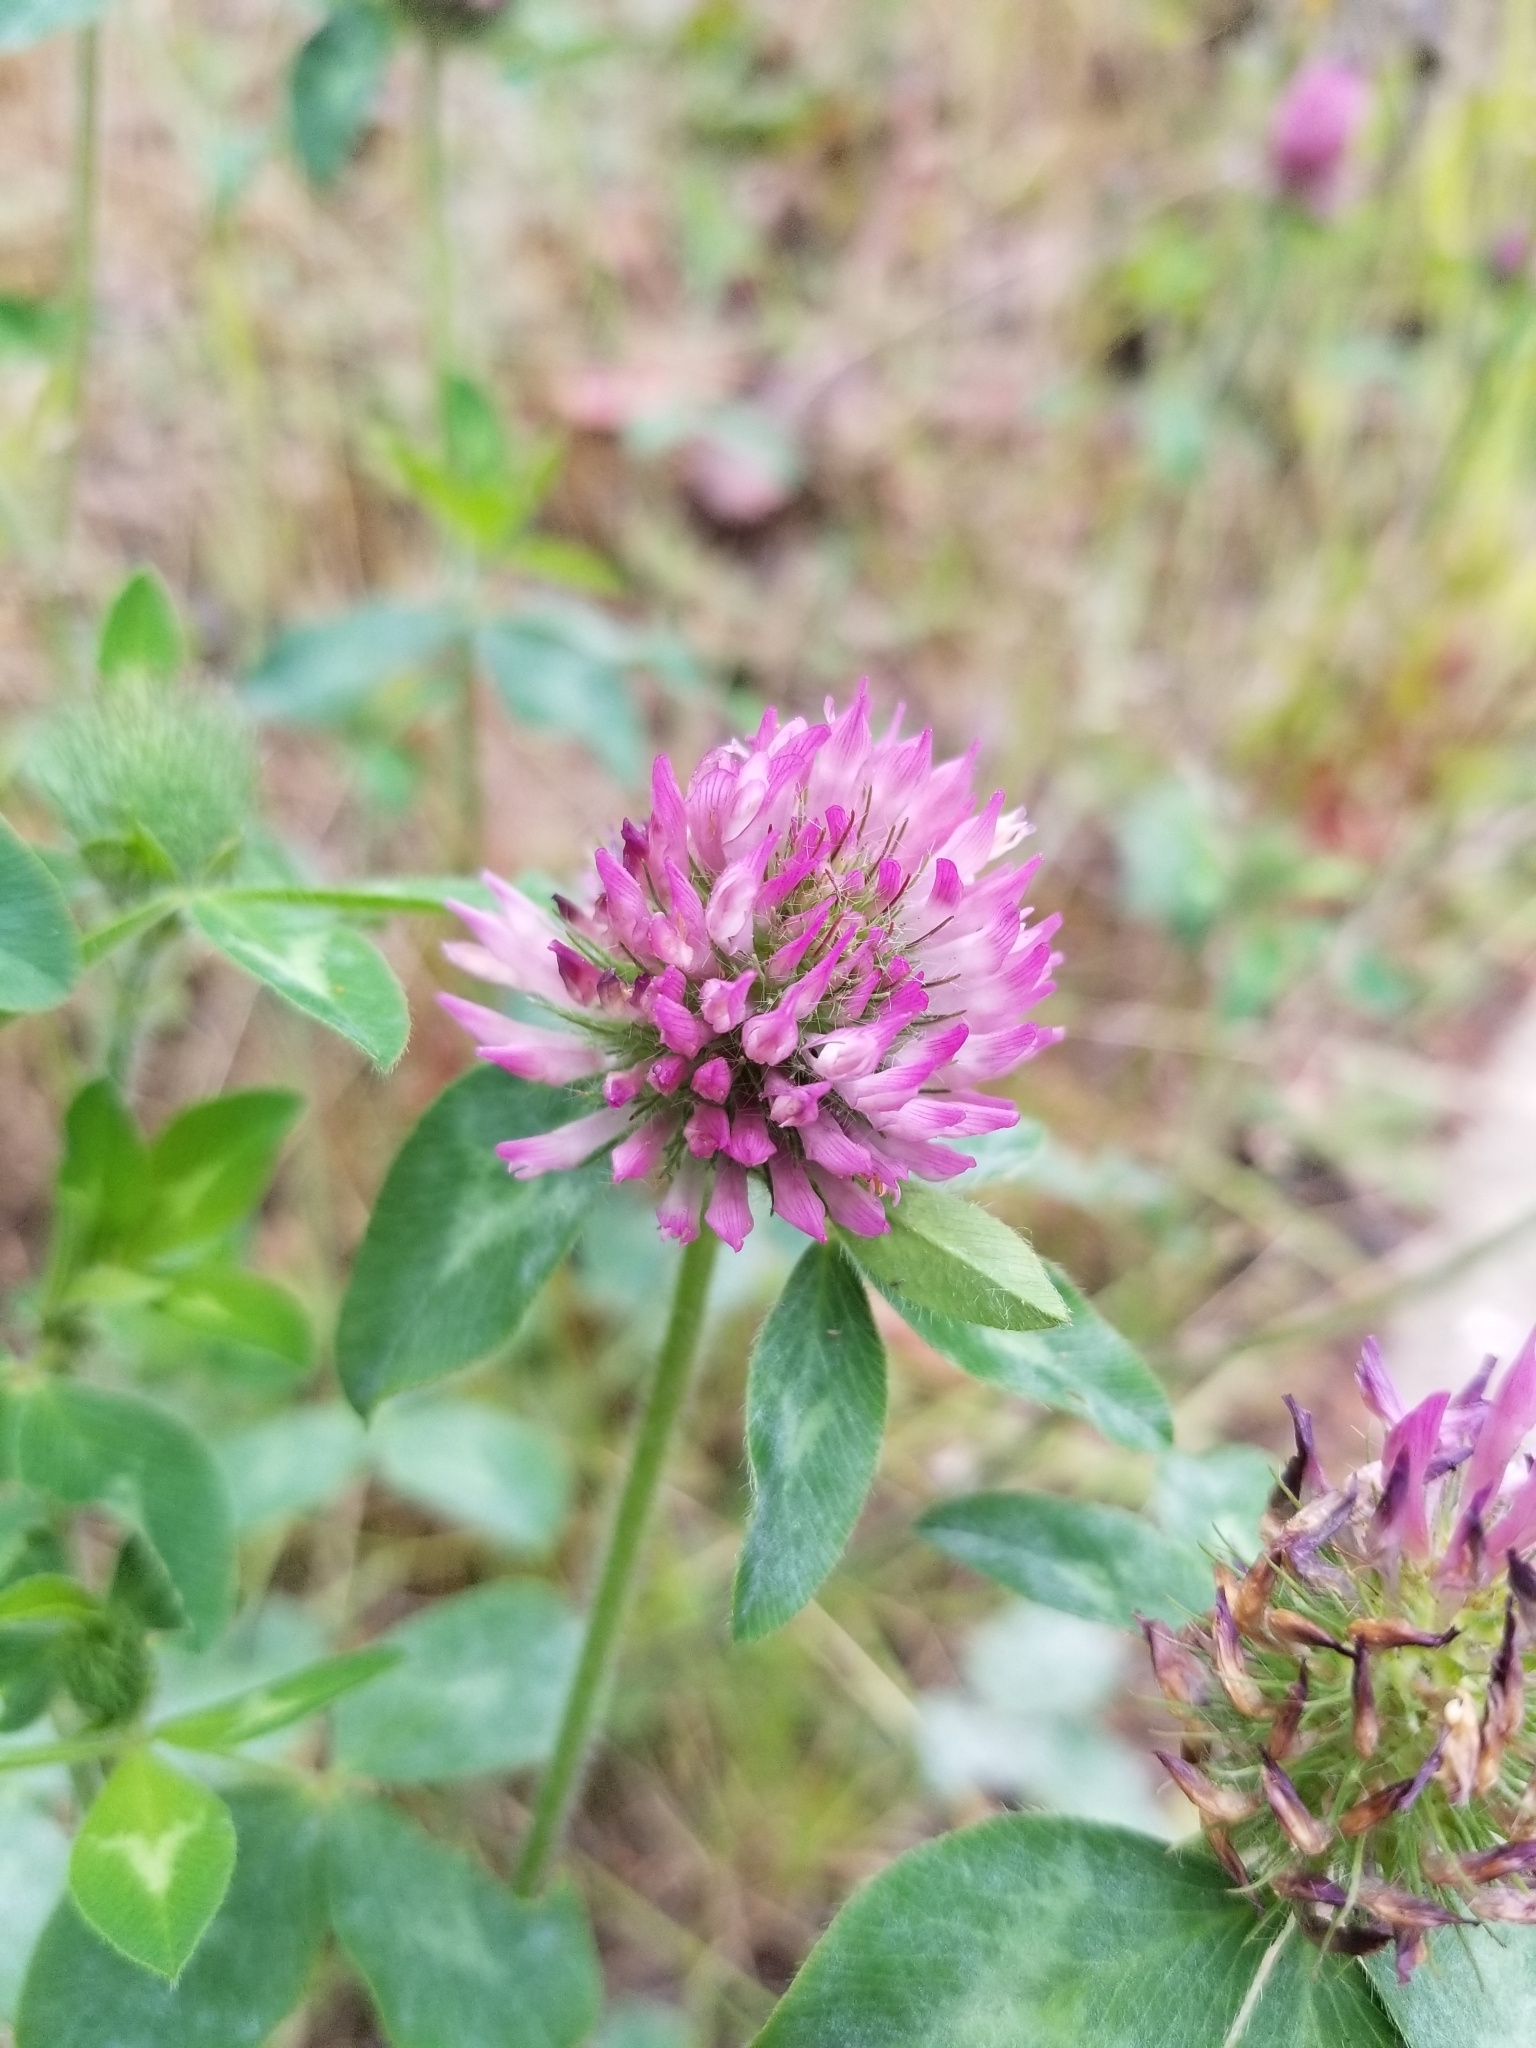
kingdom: Plantae
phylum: Tracheophyta
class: Magnoliopsida
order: Fabales
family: Fabaceae
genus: Trifolium
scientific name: Trifolium pratense
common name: Red clover
